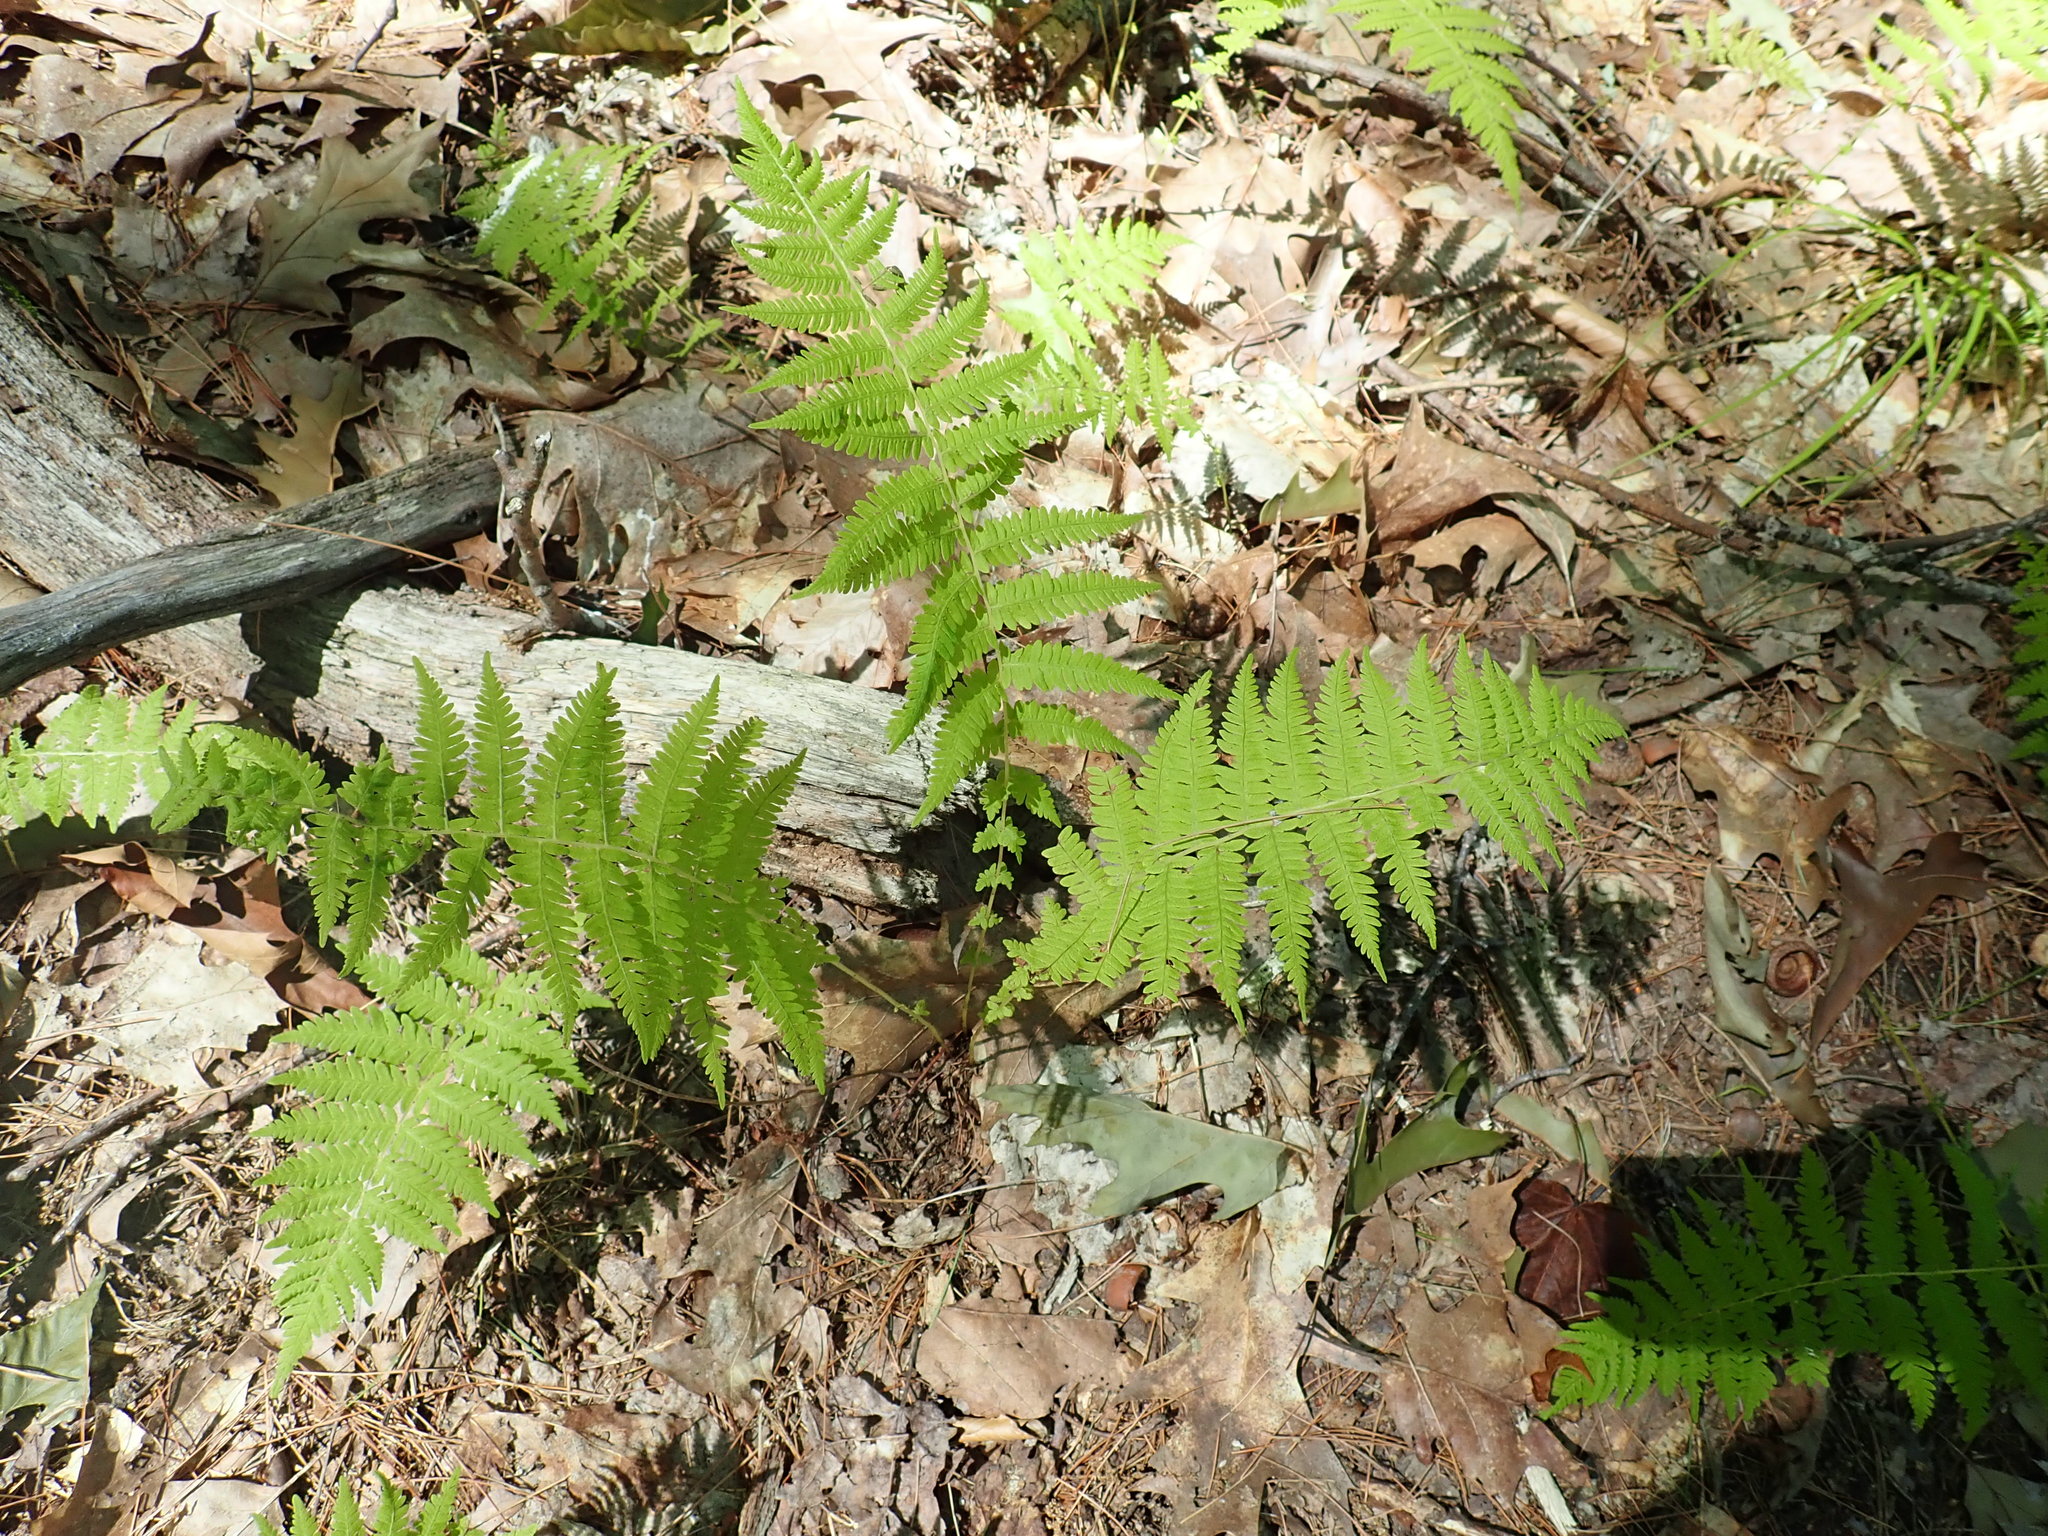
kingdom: Plantae
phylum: Tracheophyta
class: Polypodiopsida
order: Polypodiales
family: Thelypteridaceae
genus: Amauropelta
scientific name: Amauropelta noveboracensis
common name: New york fern
